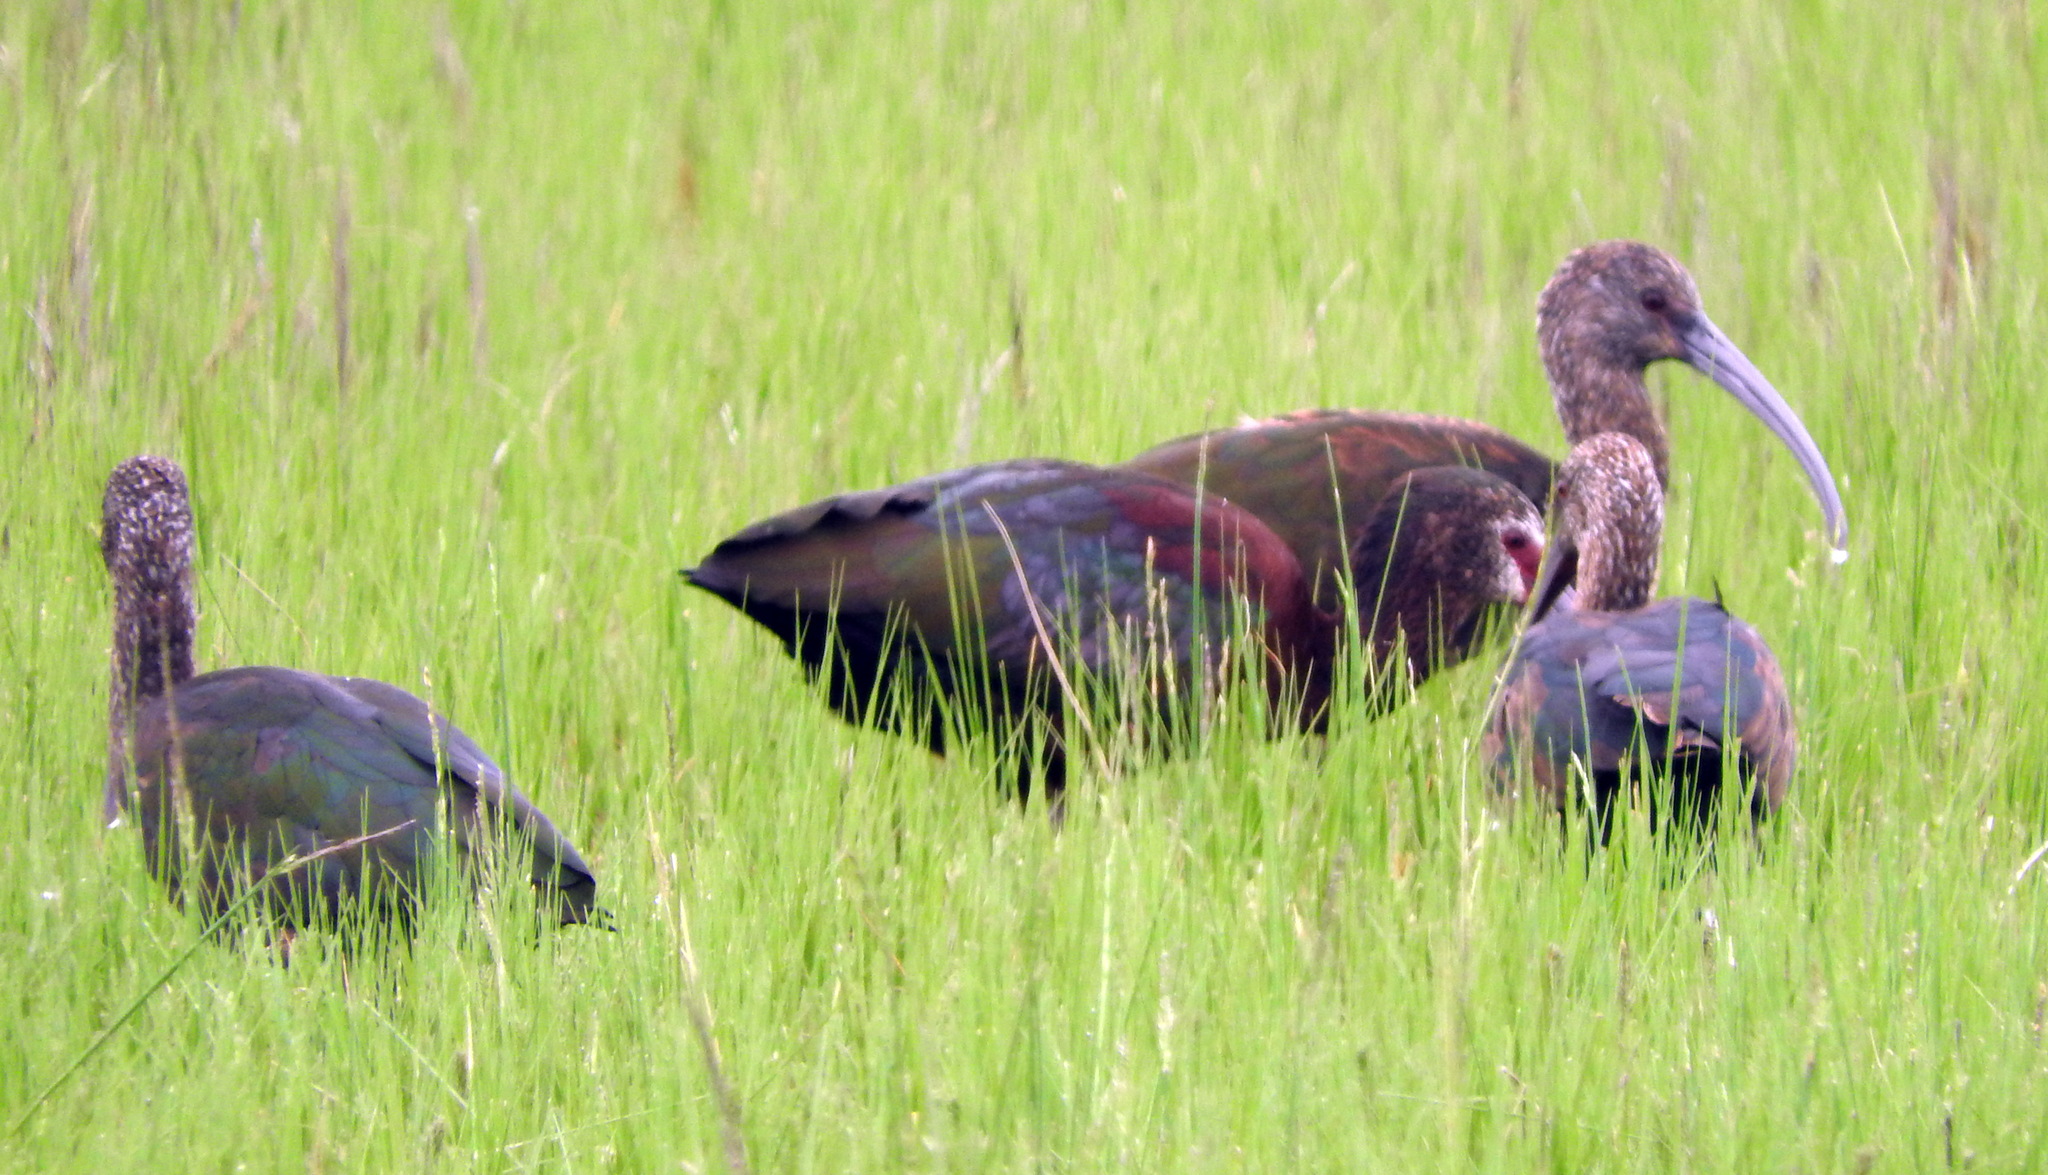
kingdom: Animalia
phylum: Chordata
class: Aves
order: Pelecaniformes
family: Threskiornithidae
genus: Plegadis
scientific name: Plegadis chihi
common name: White-faced ibis
